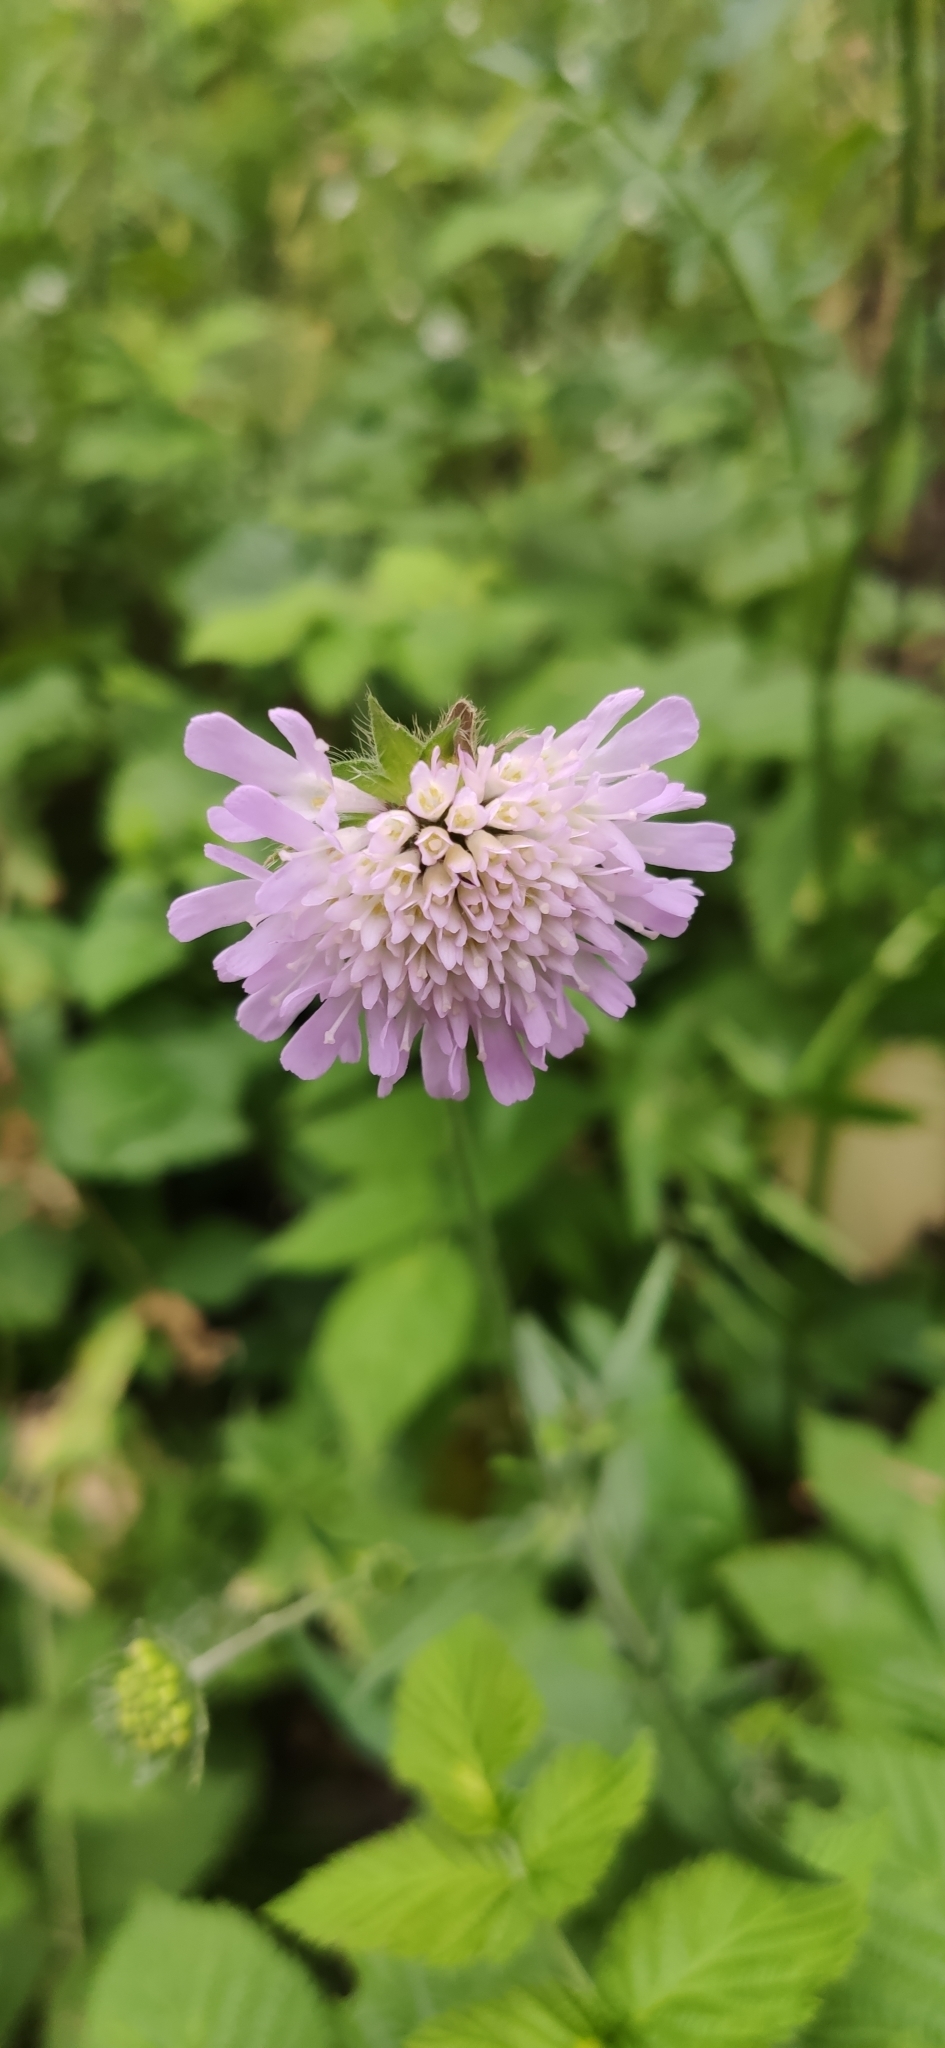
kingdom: Plantae
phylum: Tracheophyta
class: Magnoliopsida
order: Dipsacales
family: Caprifoliaceae
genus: Knautia
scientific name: Knautia arvensis
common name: Field scabiosa
